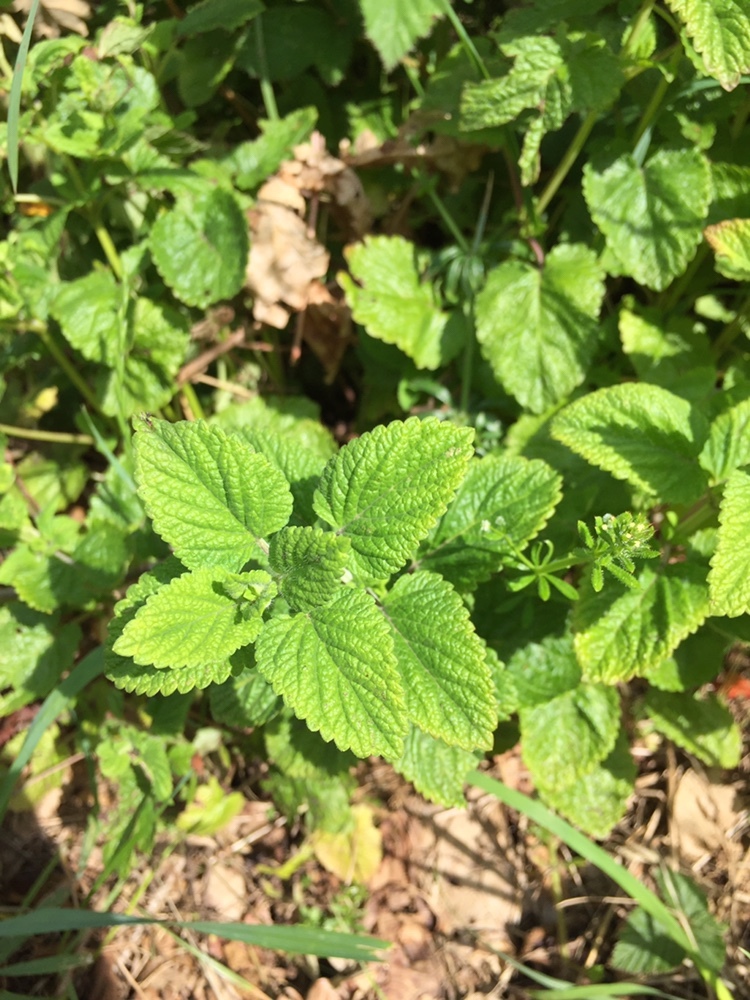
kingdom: Plantae
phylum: Tracheophyta
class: Magnoliopsida
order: Lamiales
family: Lamiaceae
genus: Melissa
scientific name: Melissa officinalis
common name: Balm
